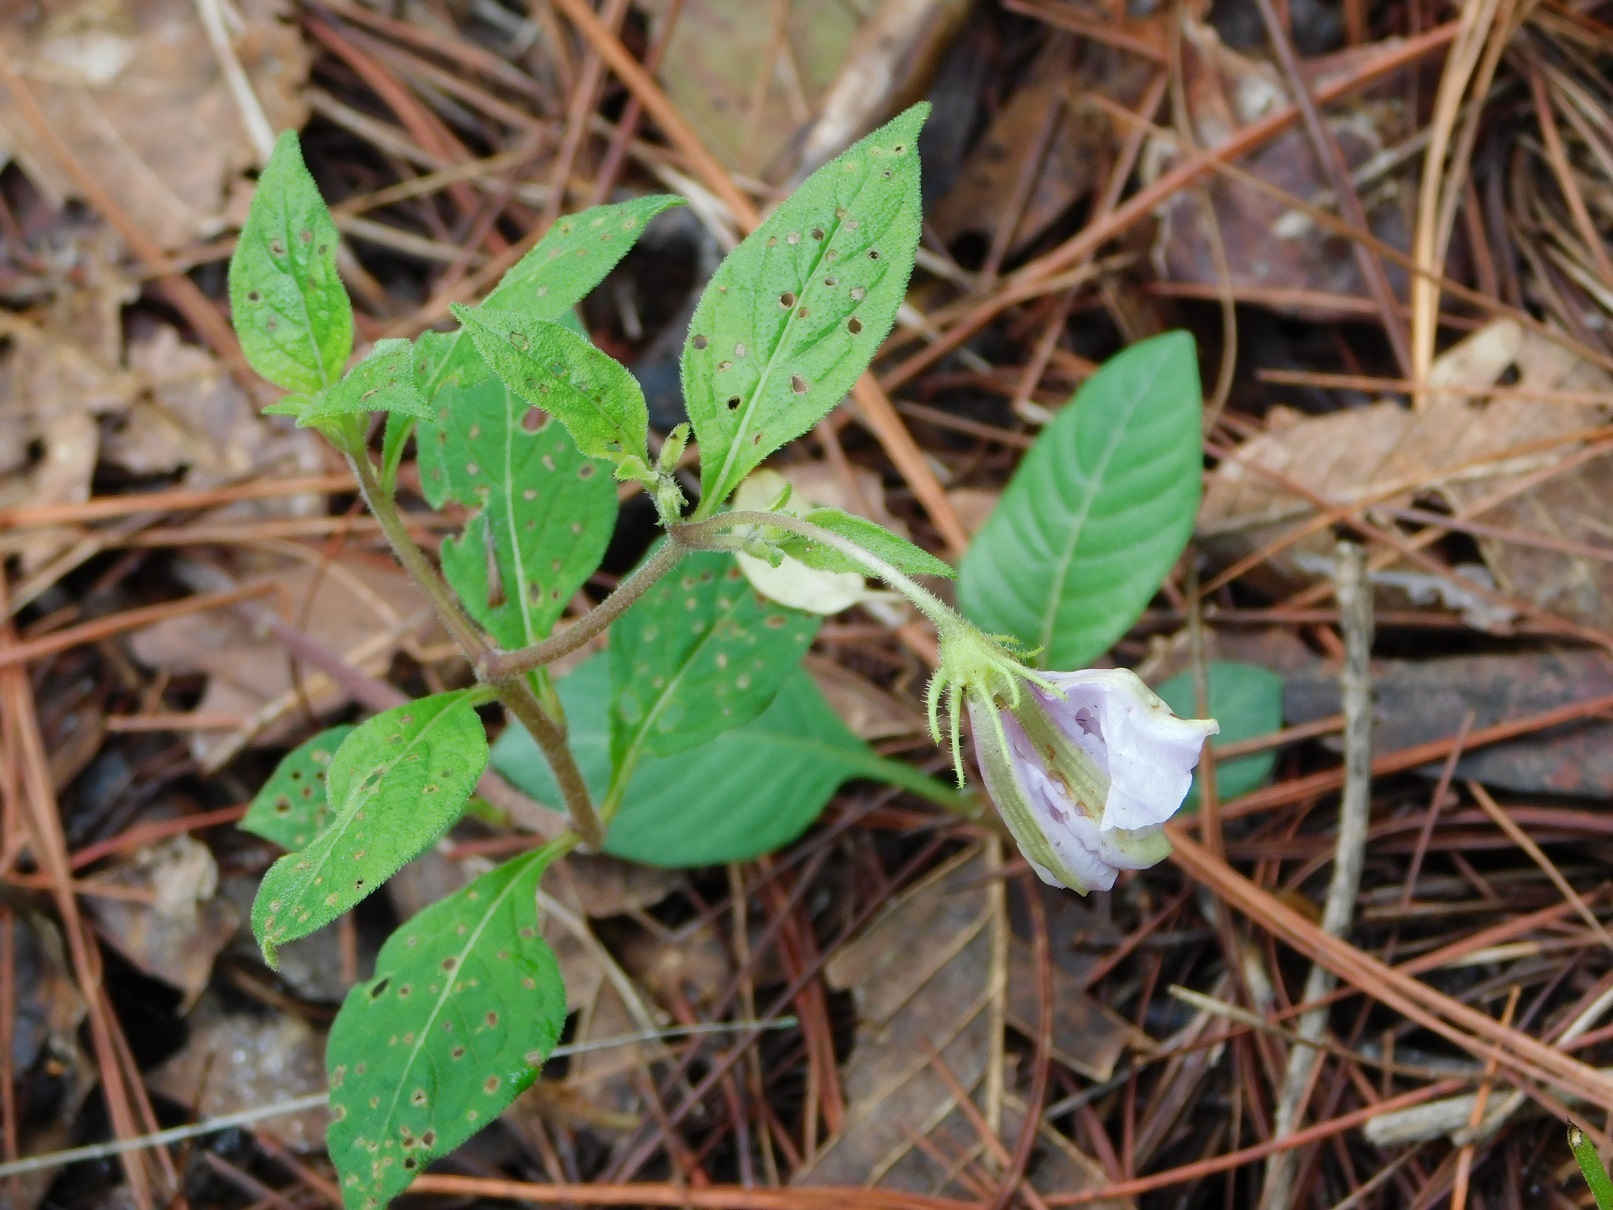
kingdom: Plantae
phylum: Tracheophyta
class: Magnoliopsida
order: Solanales
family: Solanaceae
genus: Lycianthes
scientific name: Lycianthes ciliolata
